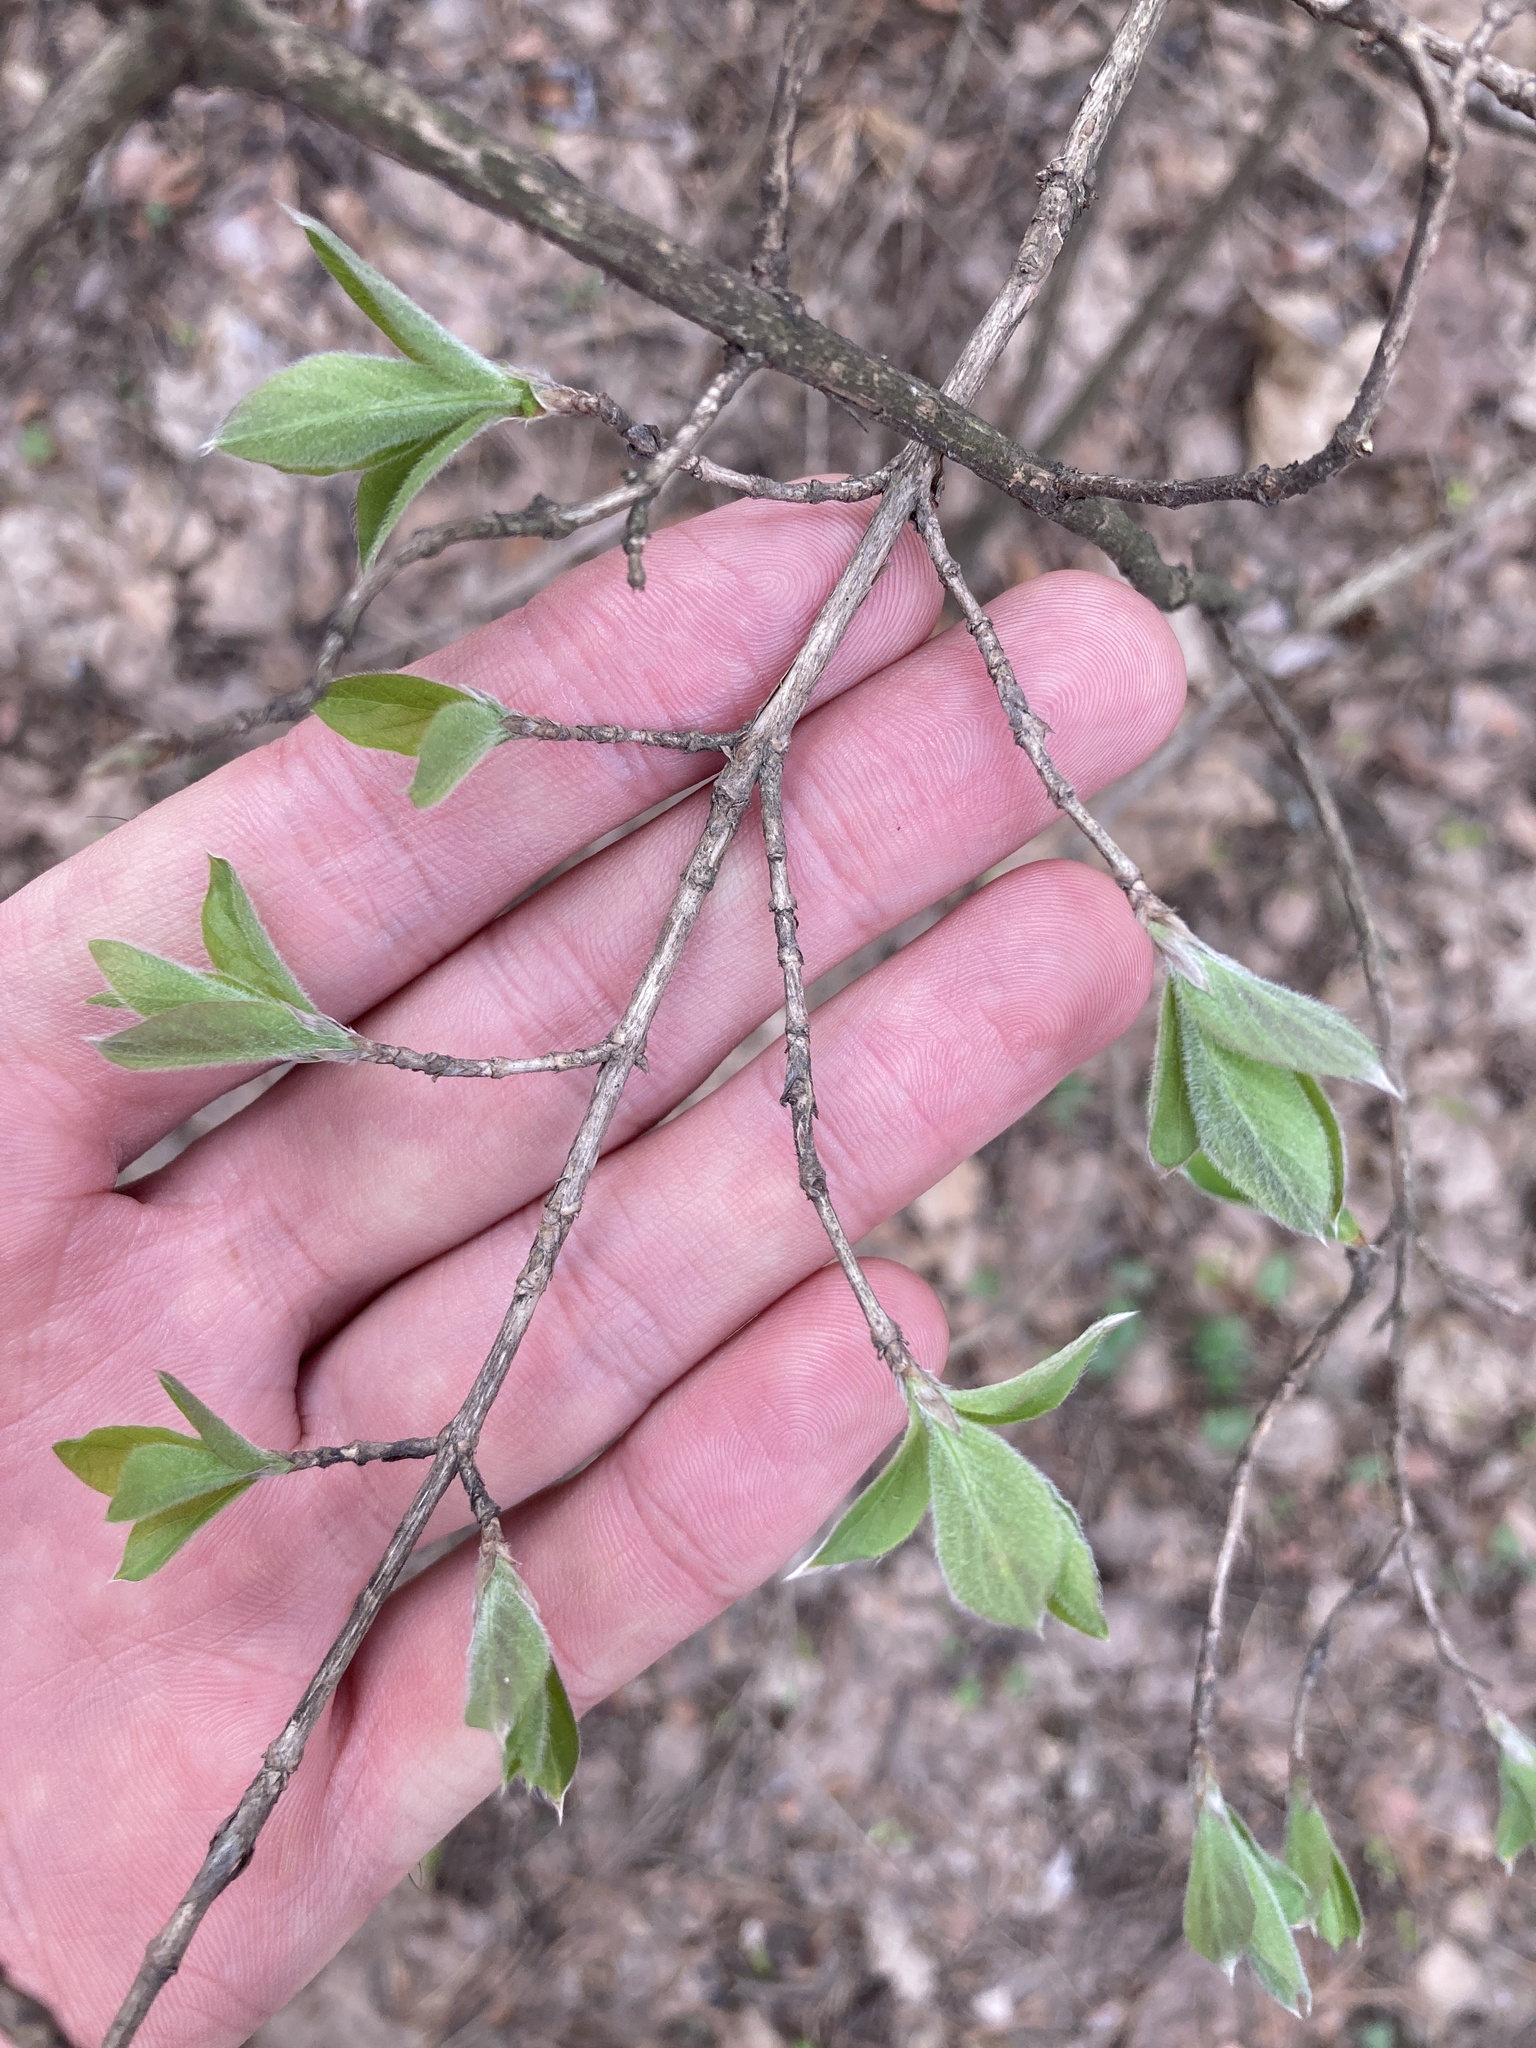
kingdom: Plantae
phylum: Tracheophyta
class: Magnoliopsida
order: Dipsacales
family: Caprifoliaceae
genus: Lonicera
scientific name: Lonicera xylosteum
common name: Fly honeysuckle
